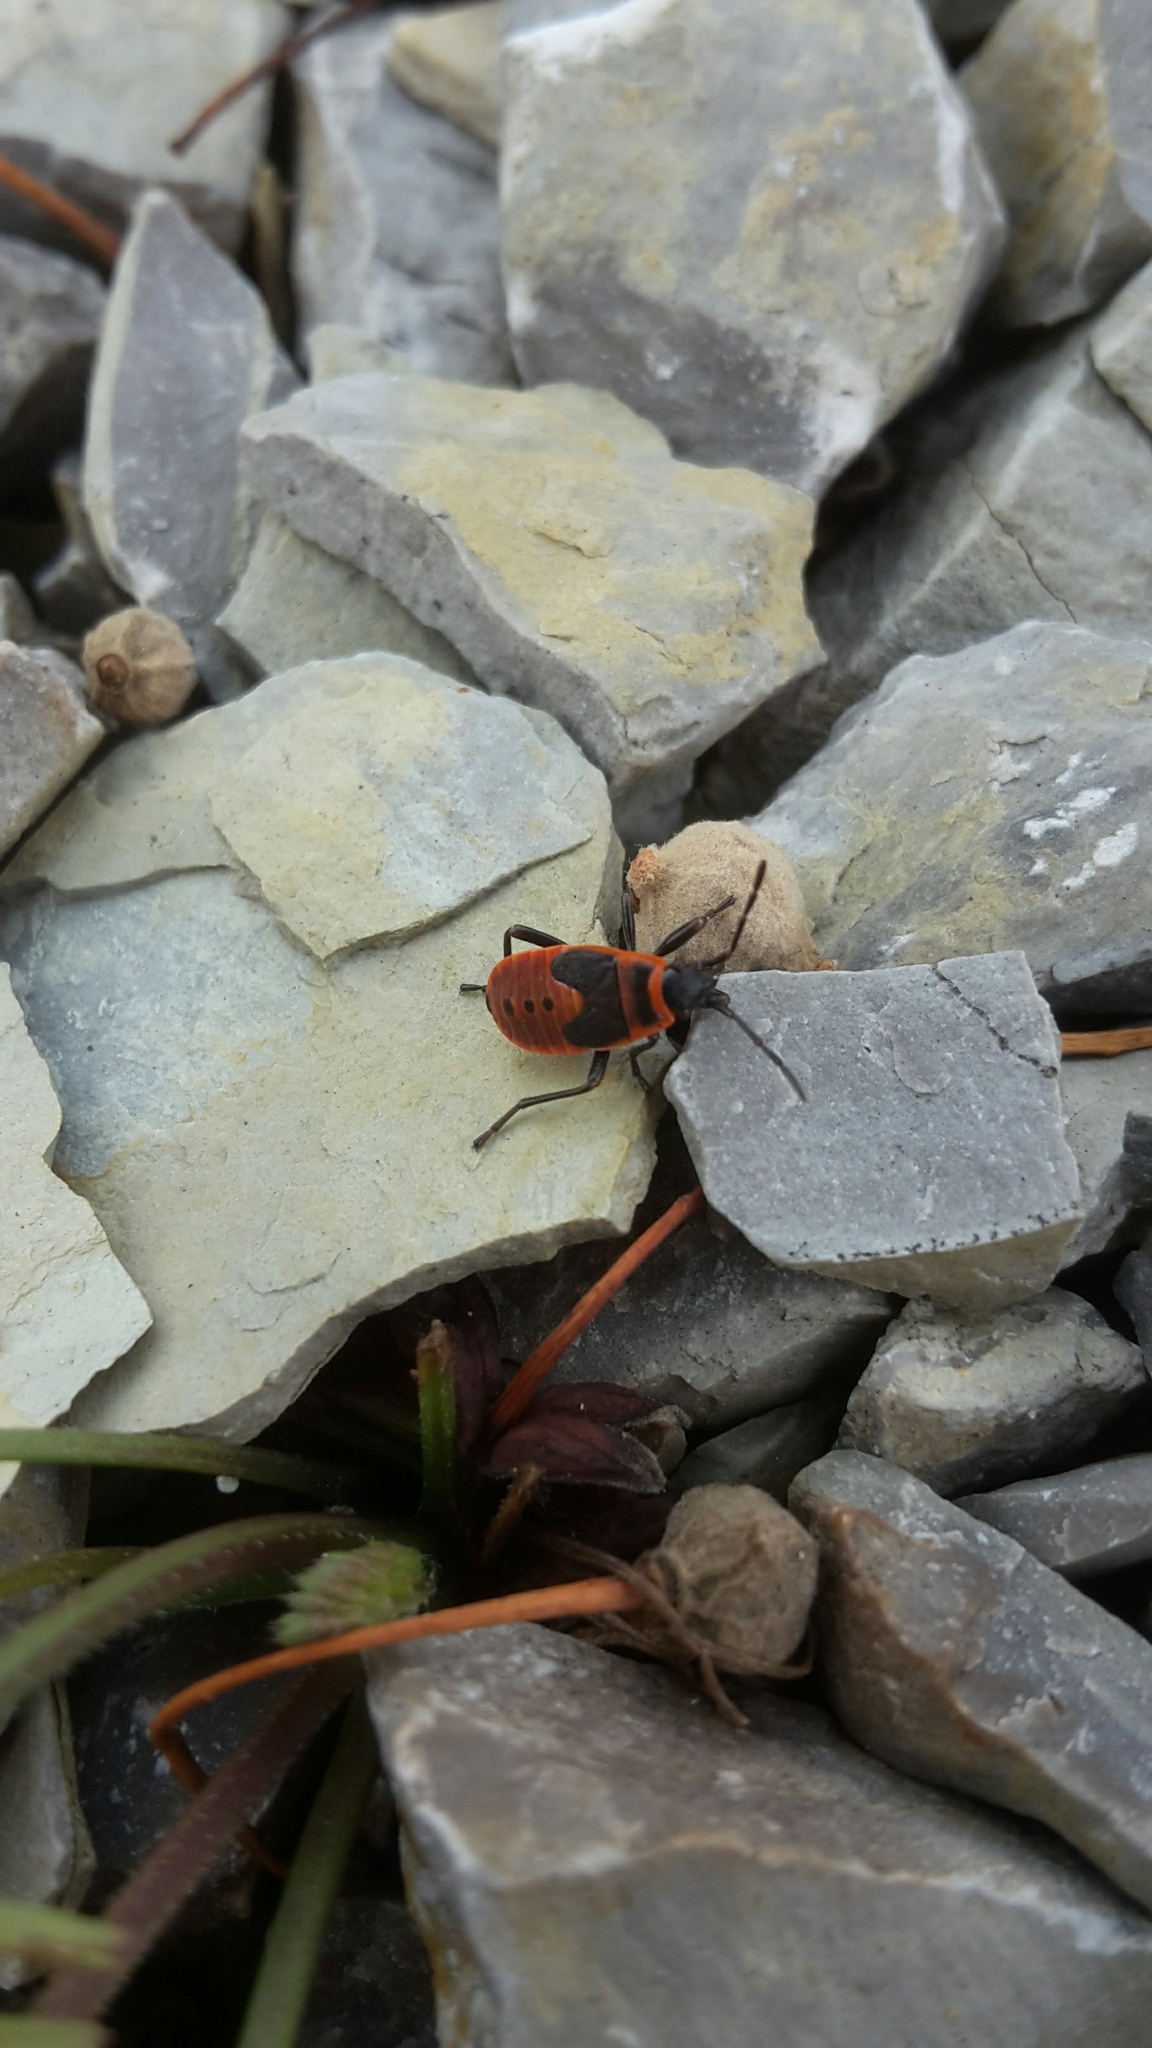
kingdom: Animalia
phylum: Arthropoda
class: Insecta
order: Hemiptera
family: Pyrrhocoridae
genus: Pyrrhocoris
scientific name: Pyrrhocoris apterus
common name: Firebug
